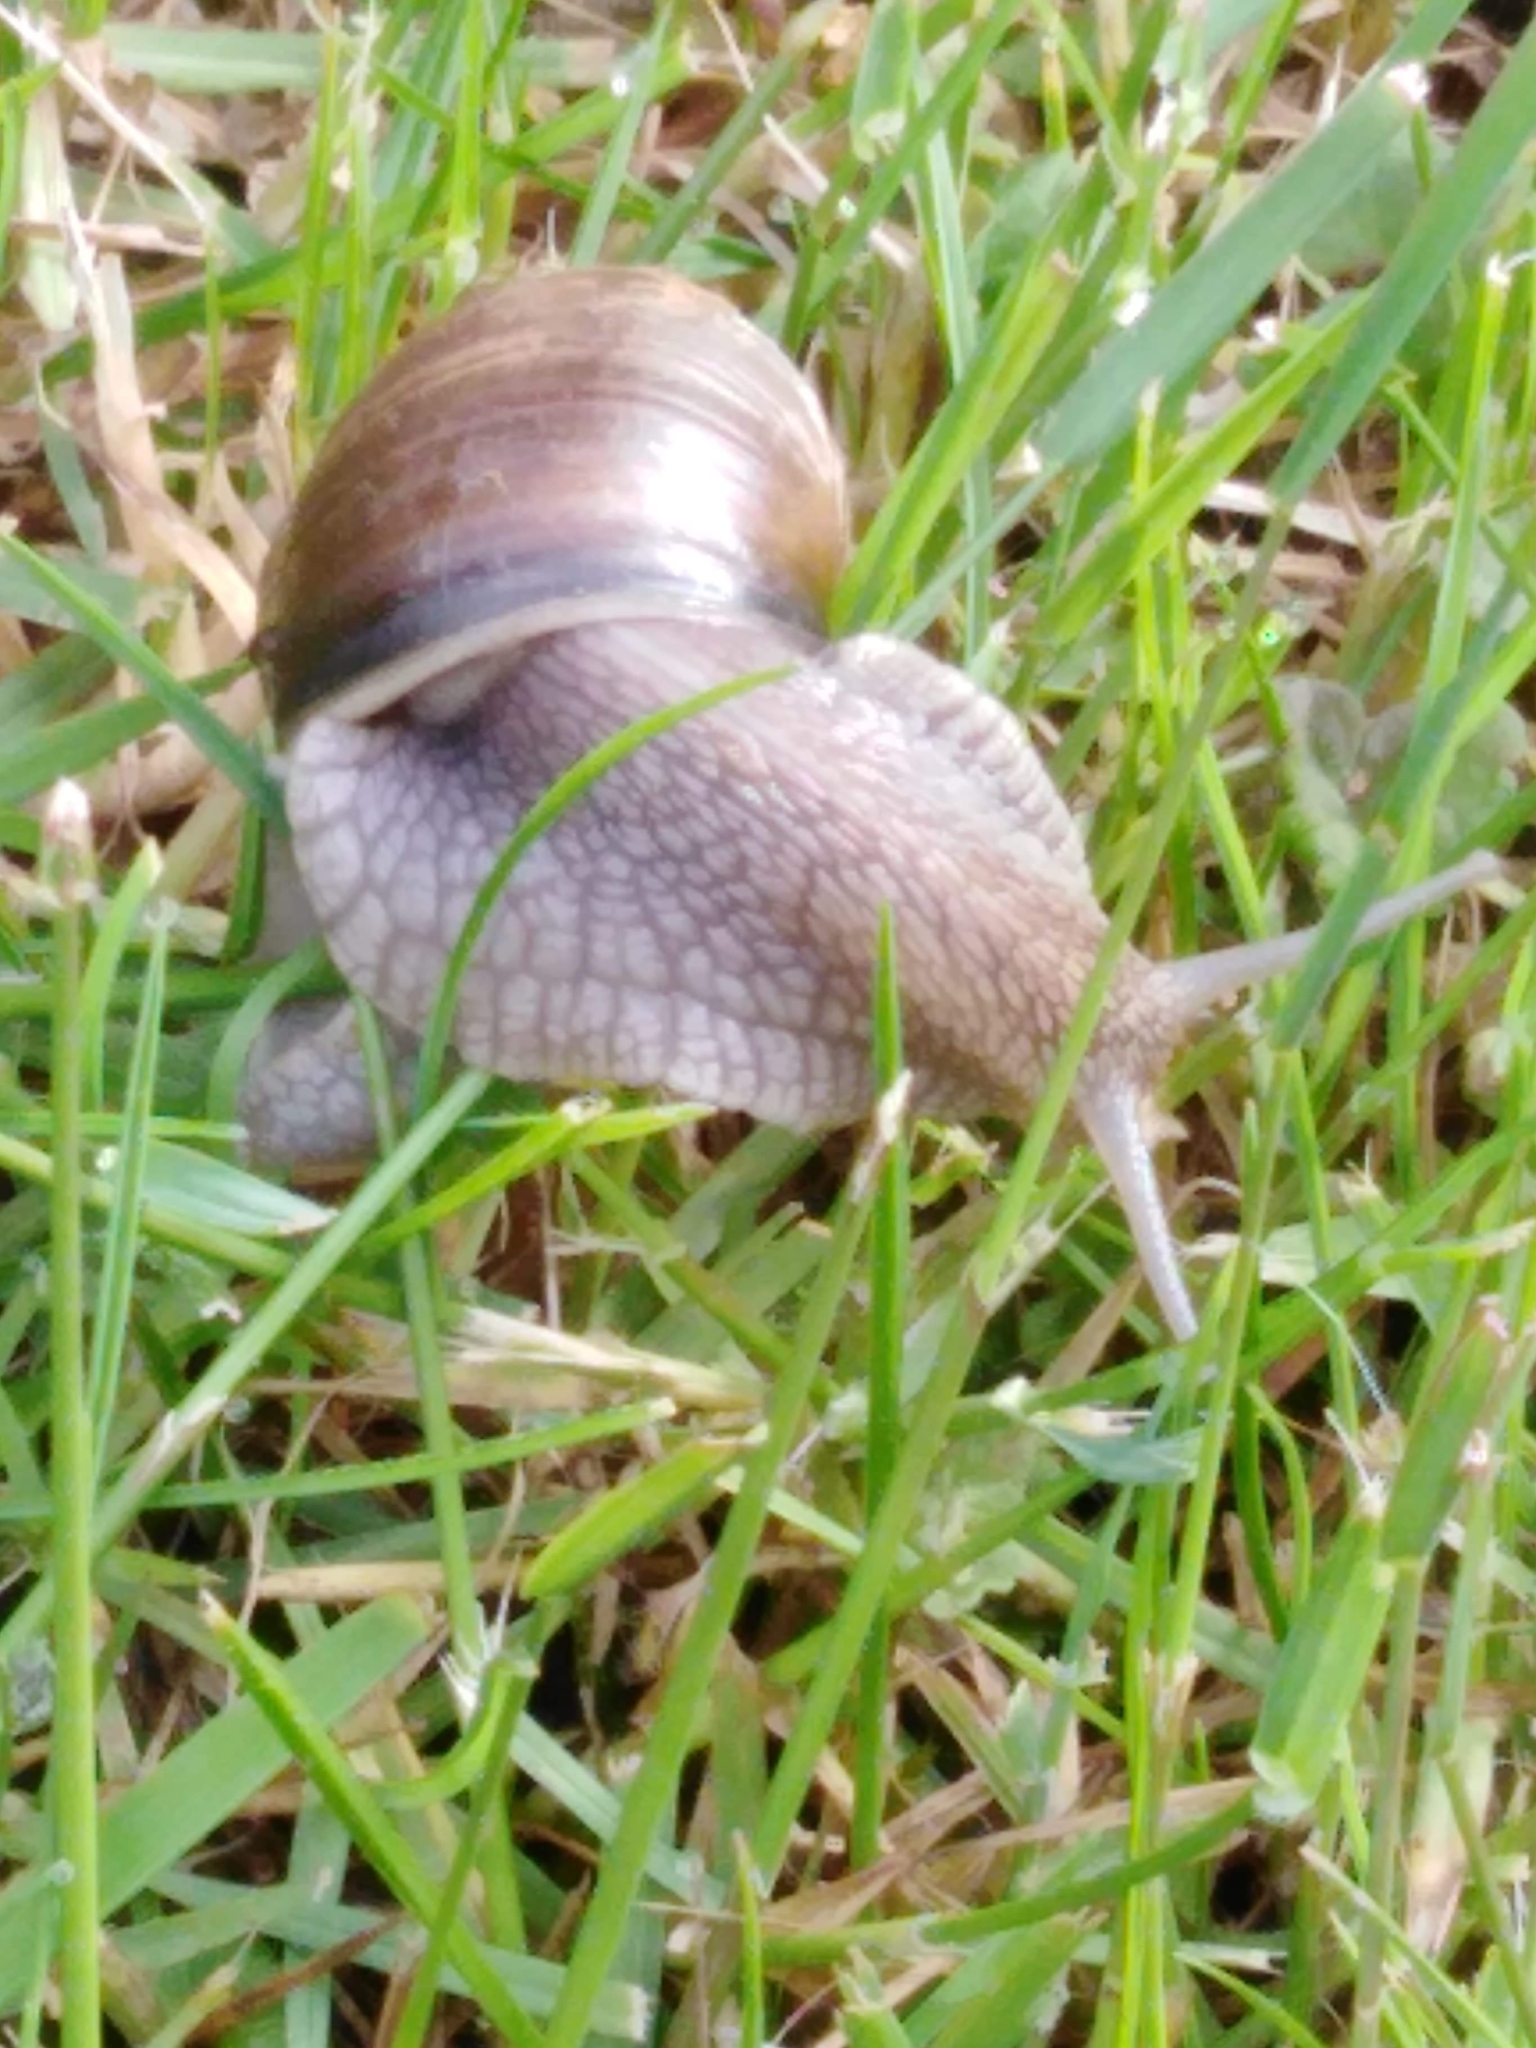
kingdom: Animalia
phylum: Mollusca
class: Gastropoda
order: Stylommatophora
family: Helicidae
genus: Helix
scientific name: Helix pomatia
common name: Roman snail
